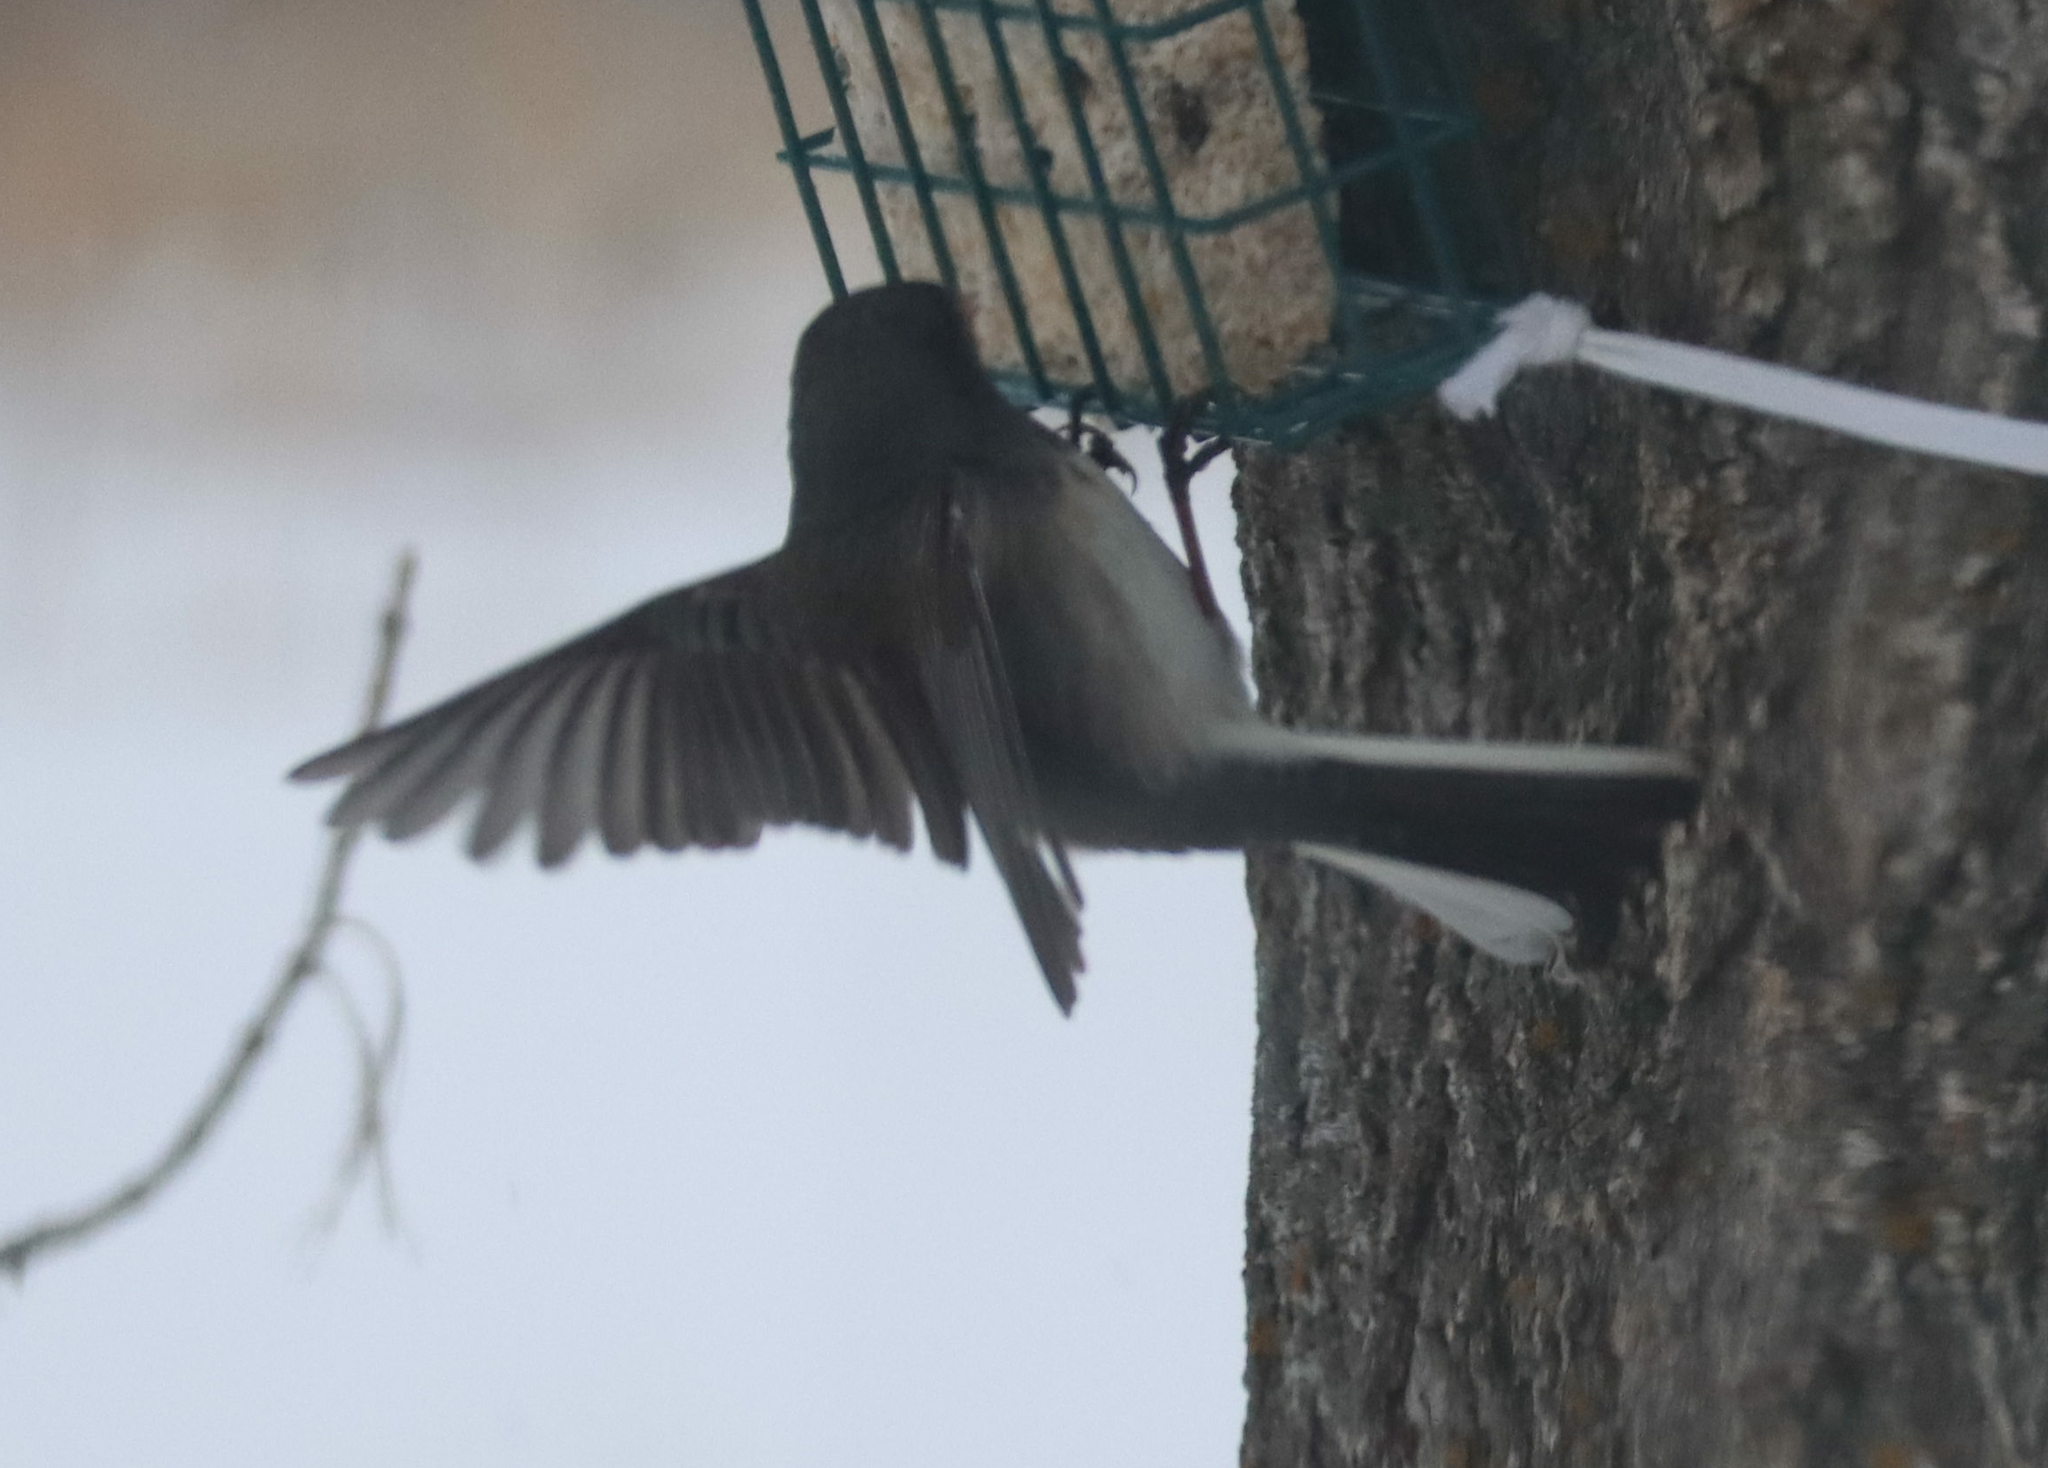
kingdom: Animalia
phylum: Chordata
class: Aves
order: Passeriformes
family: Passerellidae
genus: Junco
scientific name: Junco hyemalis
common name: Dark-eyed junco
